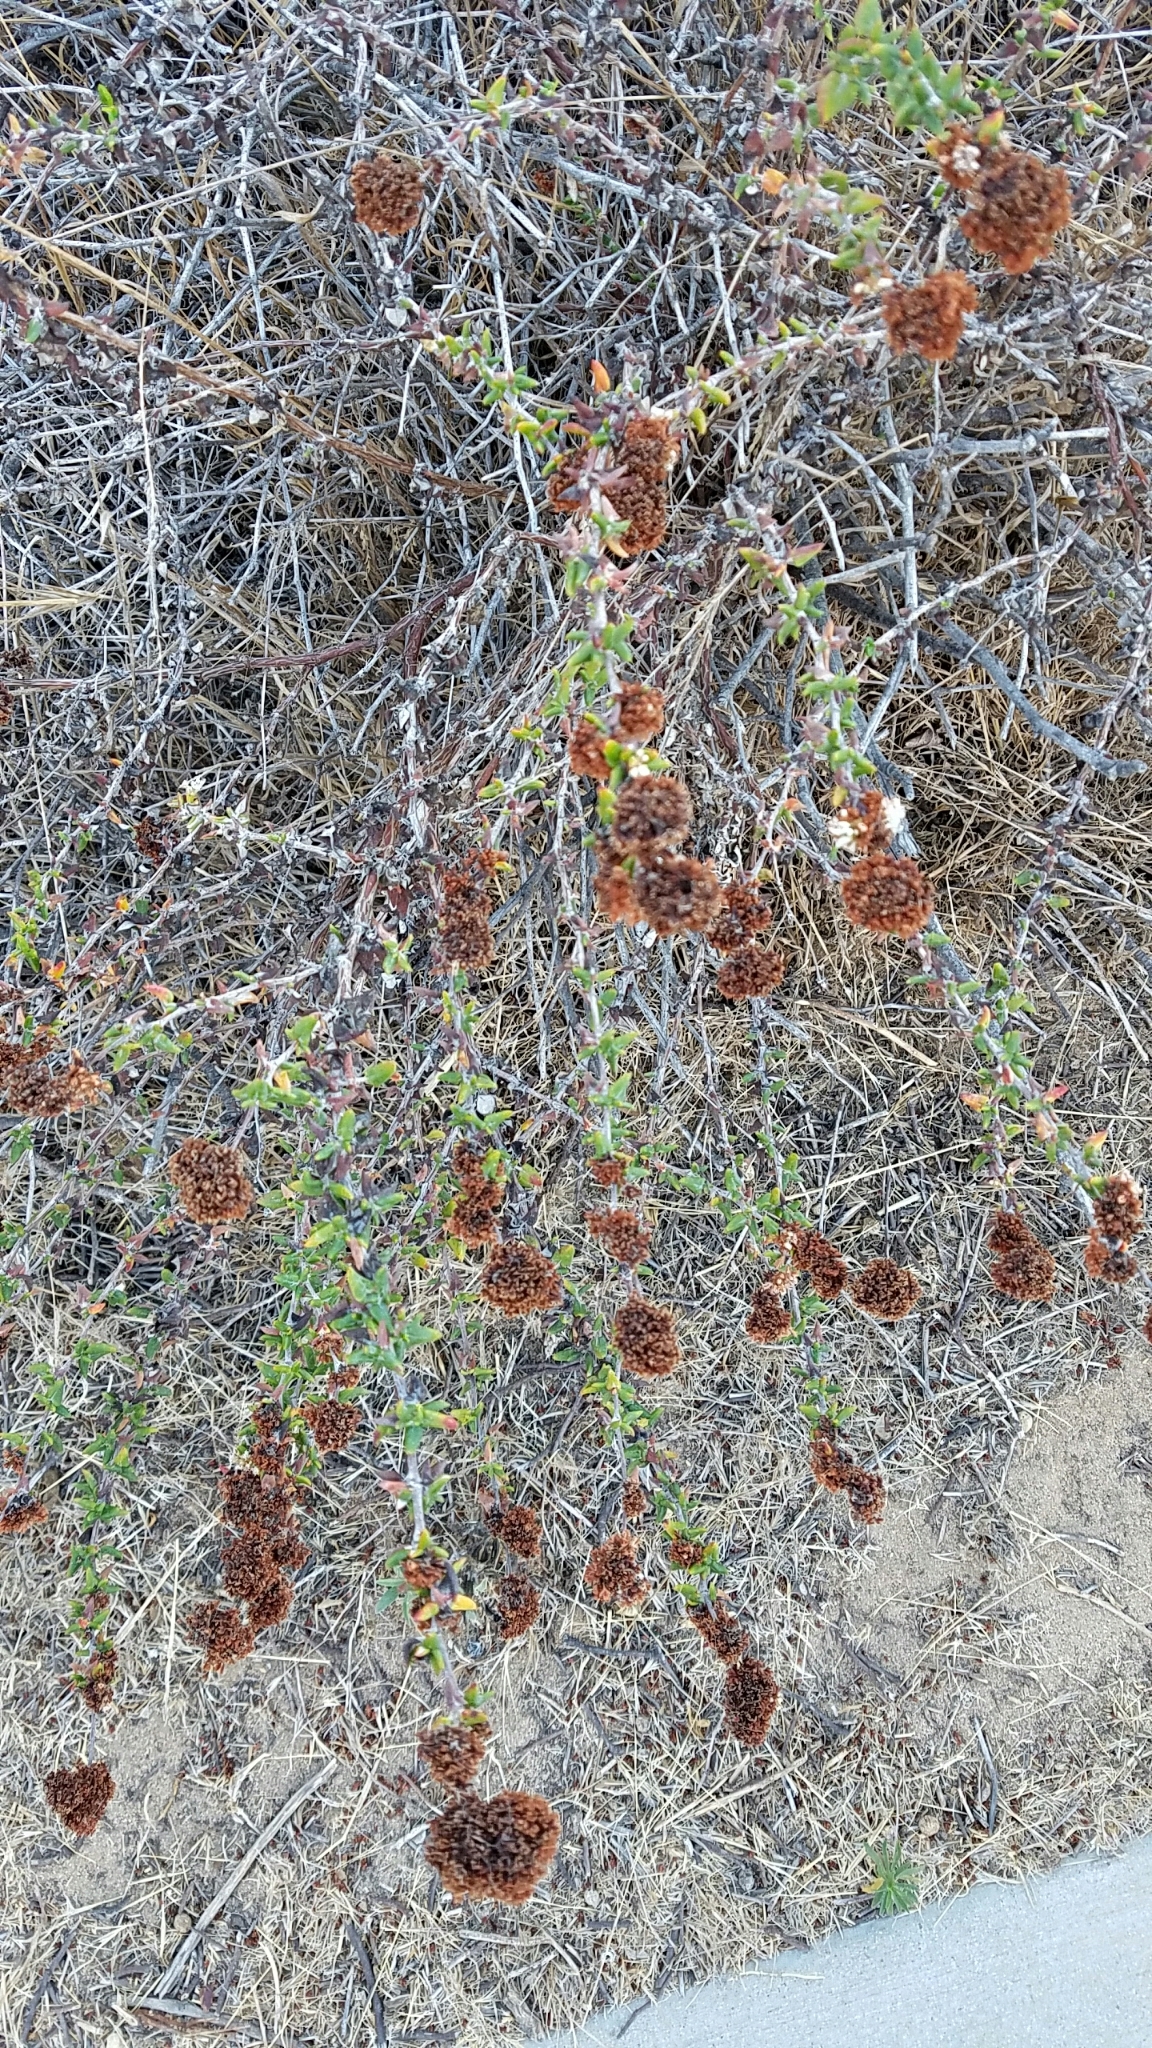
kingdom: Plantae
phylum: Tracheophyta
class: Magnoliopsida
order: Caryophyllales
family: Polygonaceae
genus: Eriogonum
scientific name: Eriogonum fasciculatum
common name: California wild buckwheat
